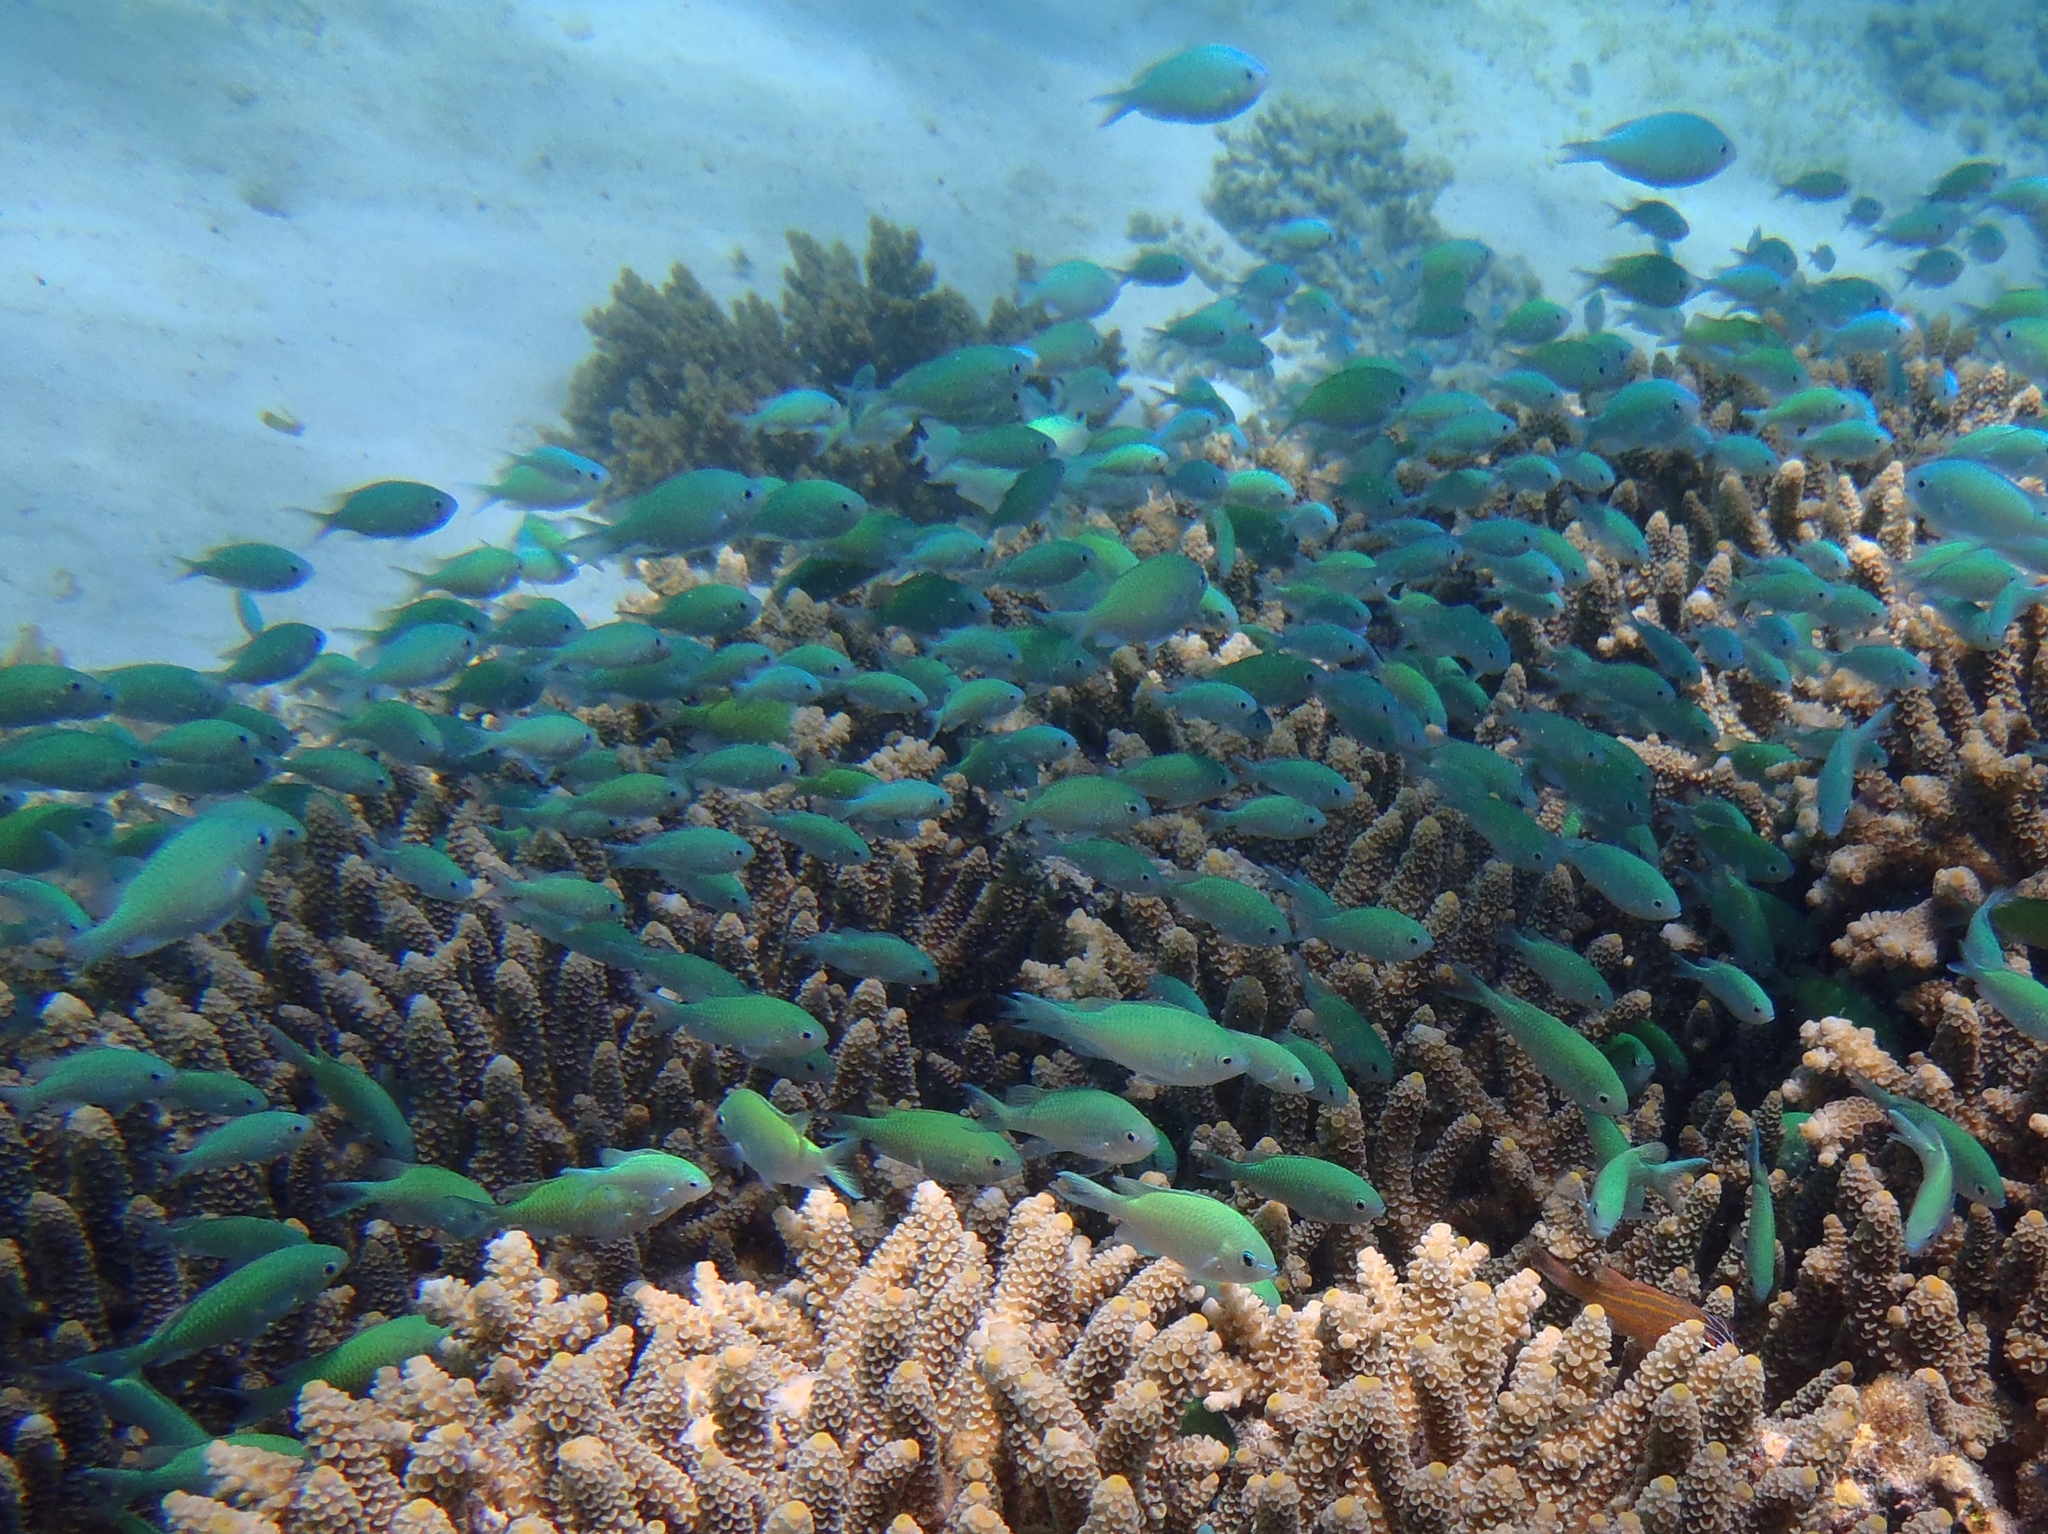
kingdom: Animalia
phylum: Chordata
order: Perciformes
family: Pomacentridae
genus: Chromis
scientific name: Chromis viridis
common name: Blue-green chromis
